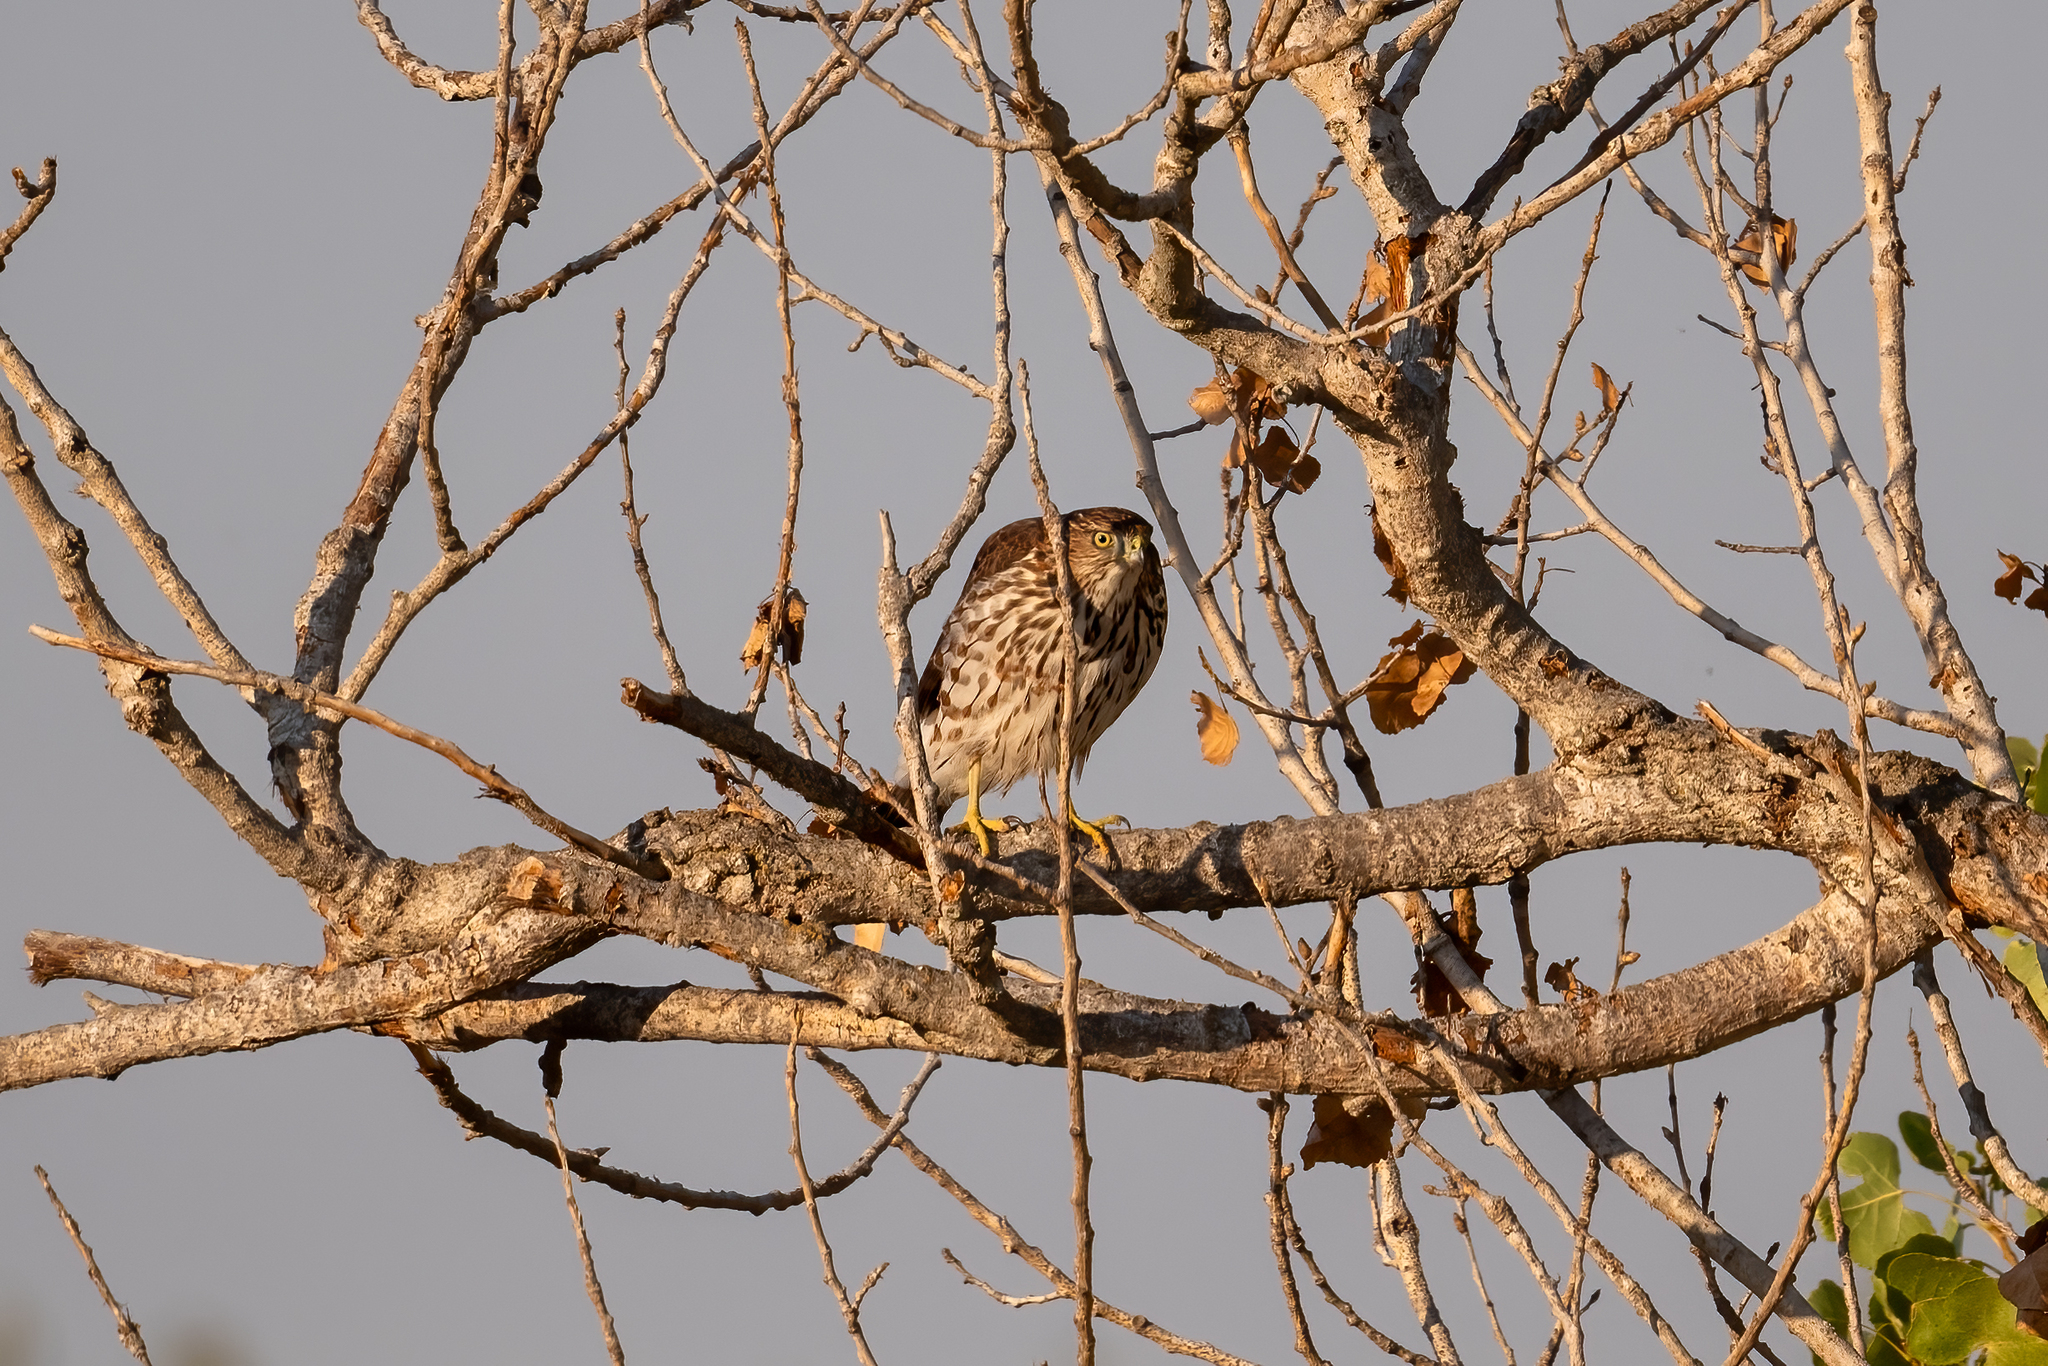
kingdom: Animalia
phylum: Chordata
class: Aves
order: Accipitriformes
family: Accipitridae
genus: Accipiter
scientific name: Accipiter cooperii
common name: Cooper's hawk
